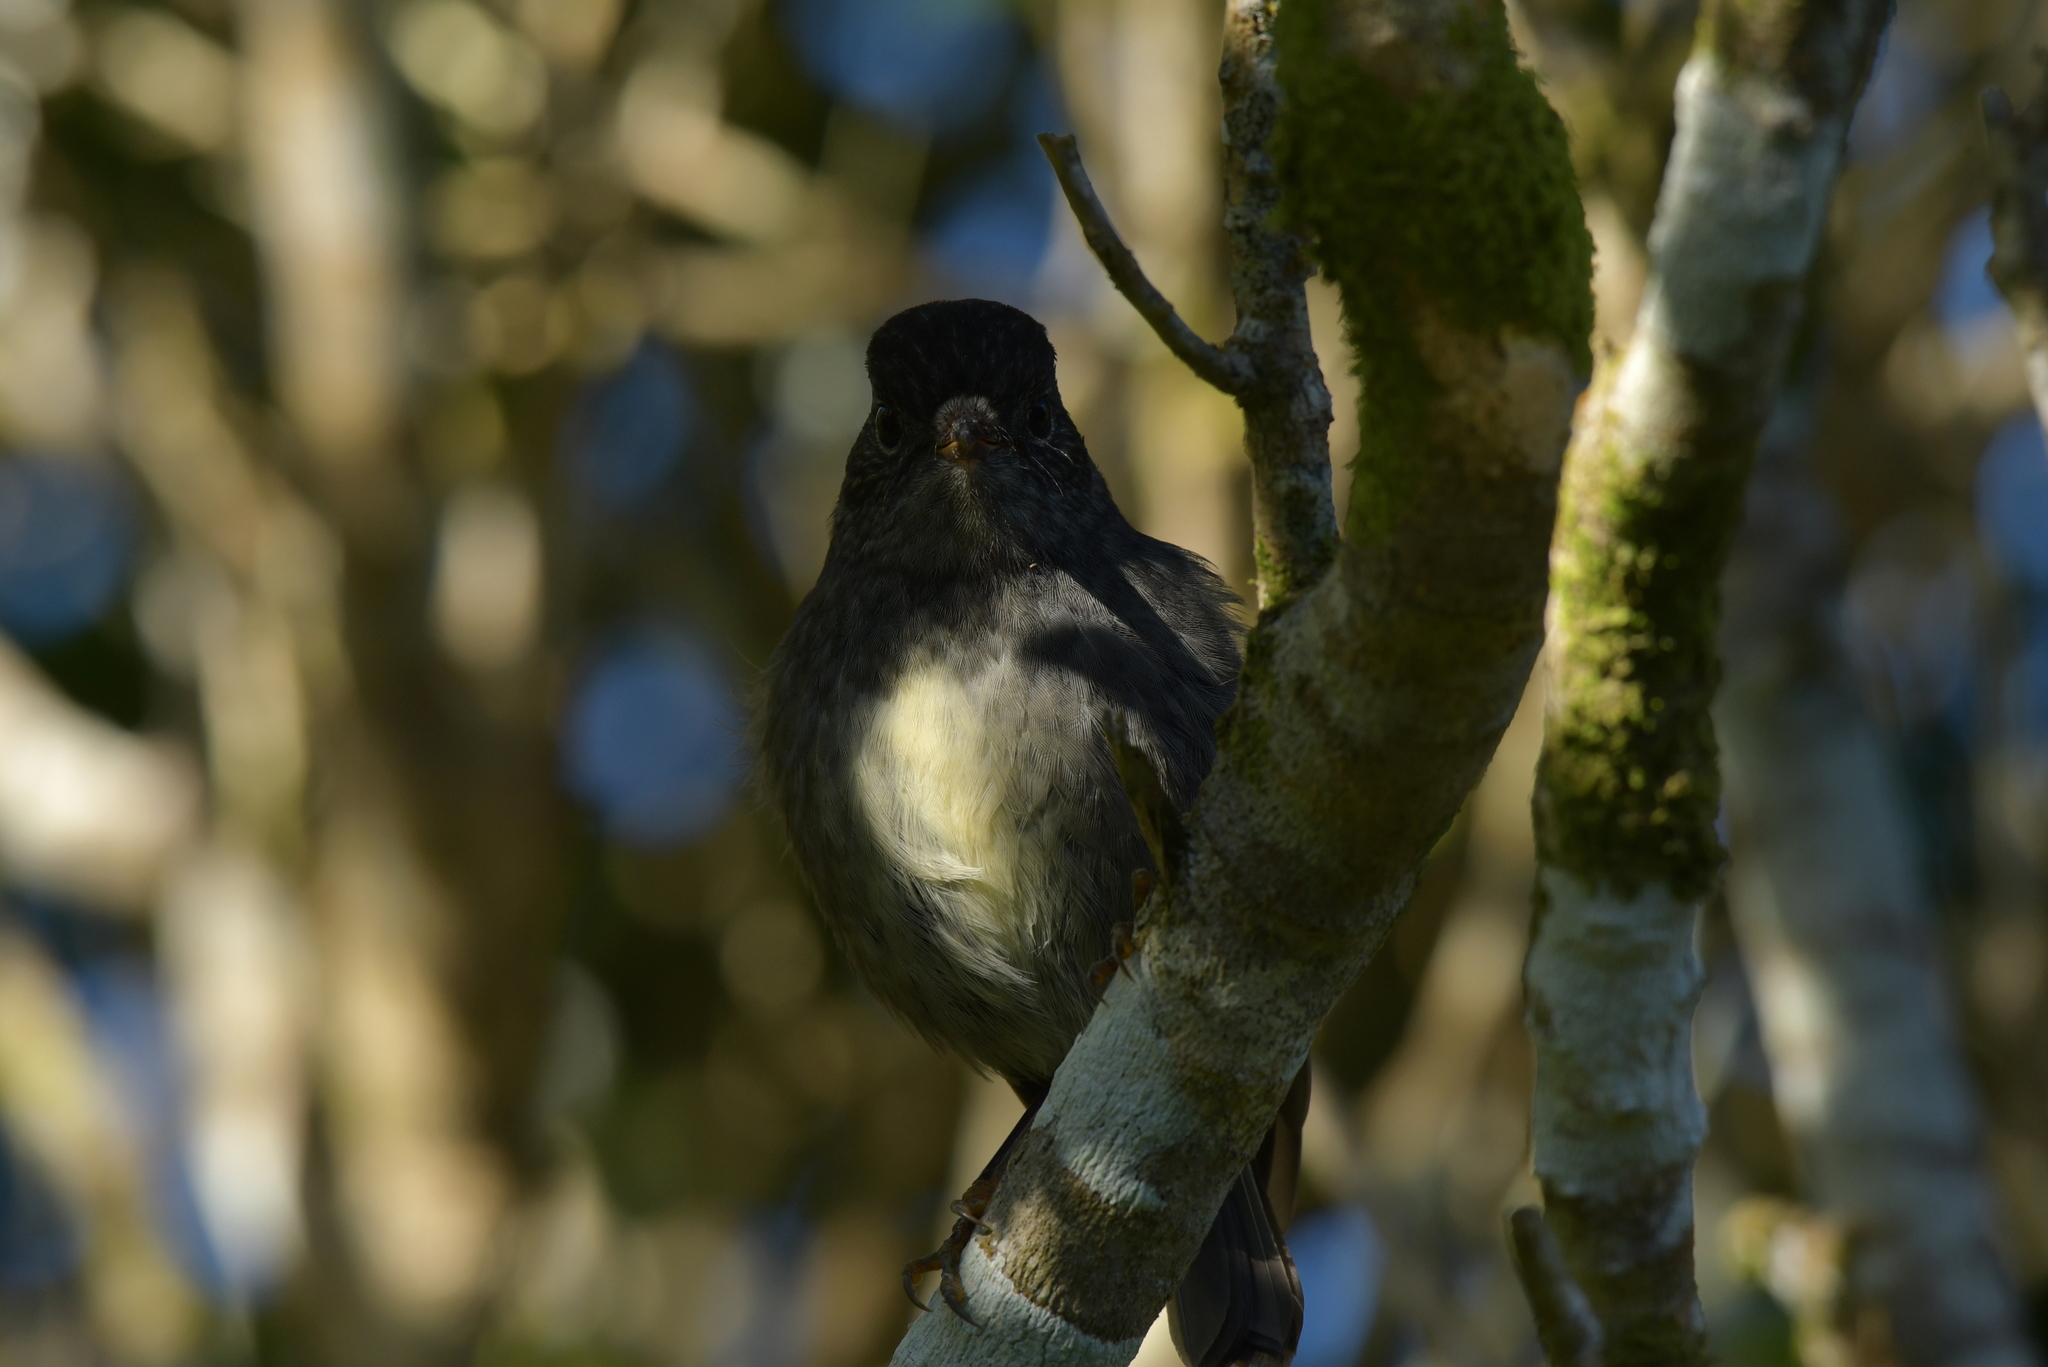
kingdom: Animalia
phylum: Chordata
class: Aves
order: Passeriformes
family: Petroicidae
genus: Petroica
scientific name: Petroica australis
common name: New zealand robin
